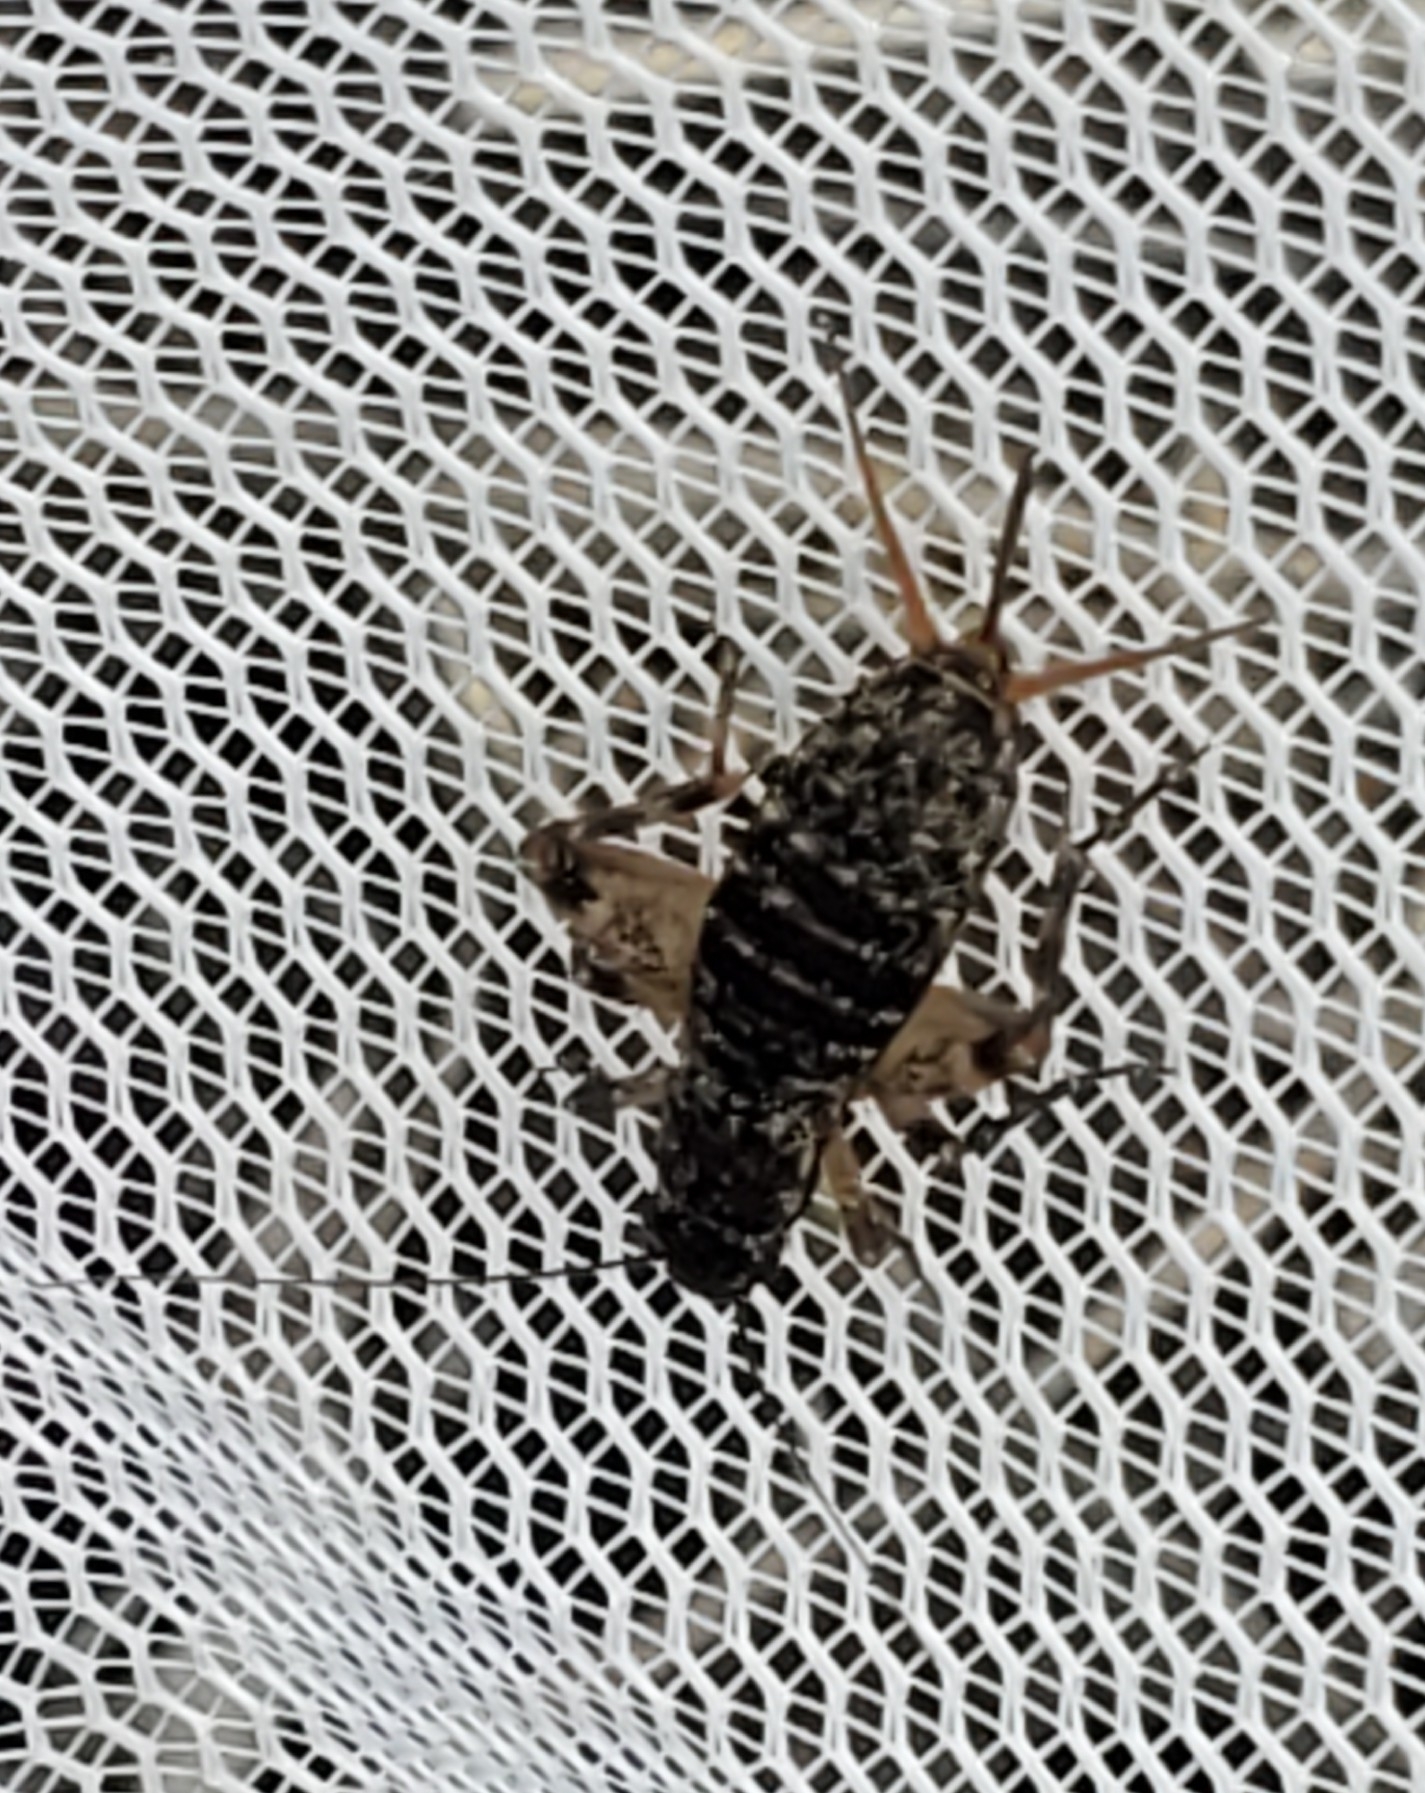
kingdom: Animalia
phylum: Arthropoda
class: Insecta
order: Orthoptera
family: Mogoplistidae
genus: Hoplosphyrum
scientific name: Hoplosphyrum boreale
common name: Long-winged scaly cricket
